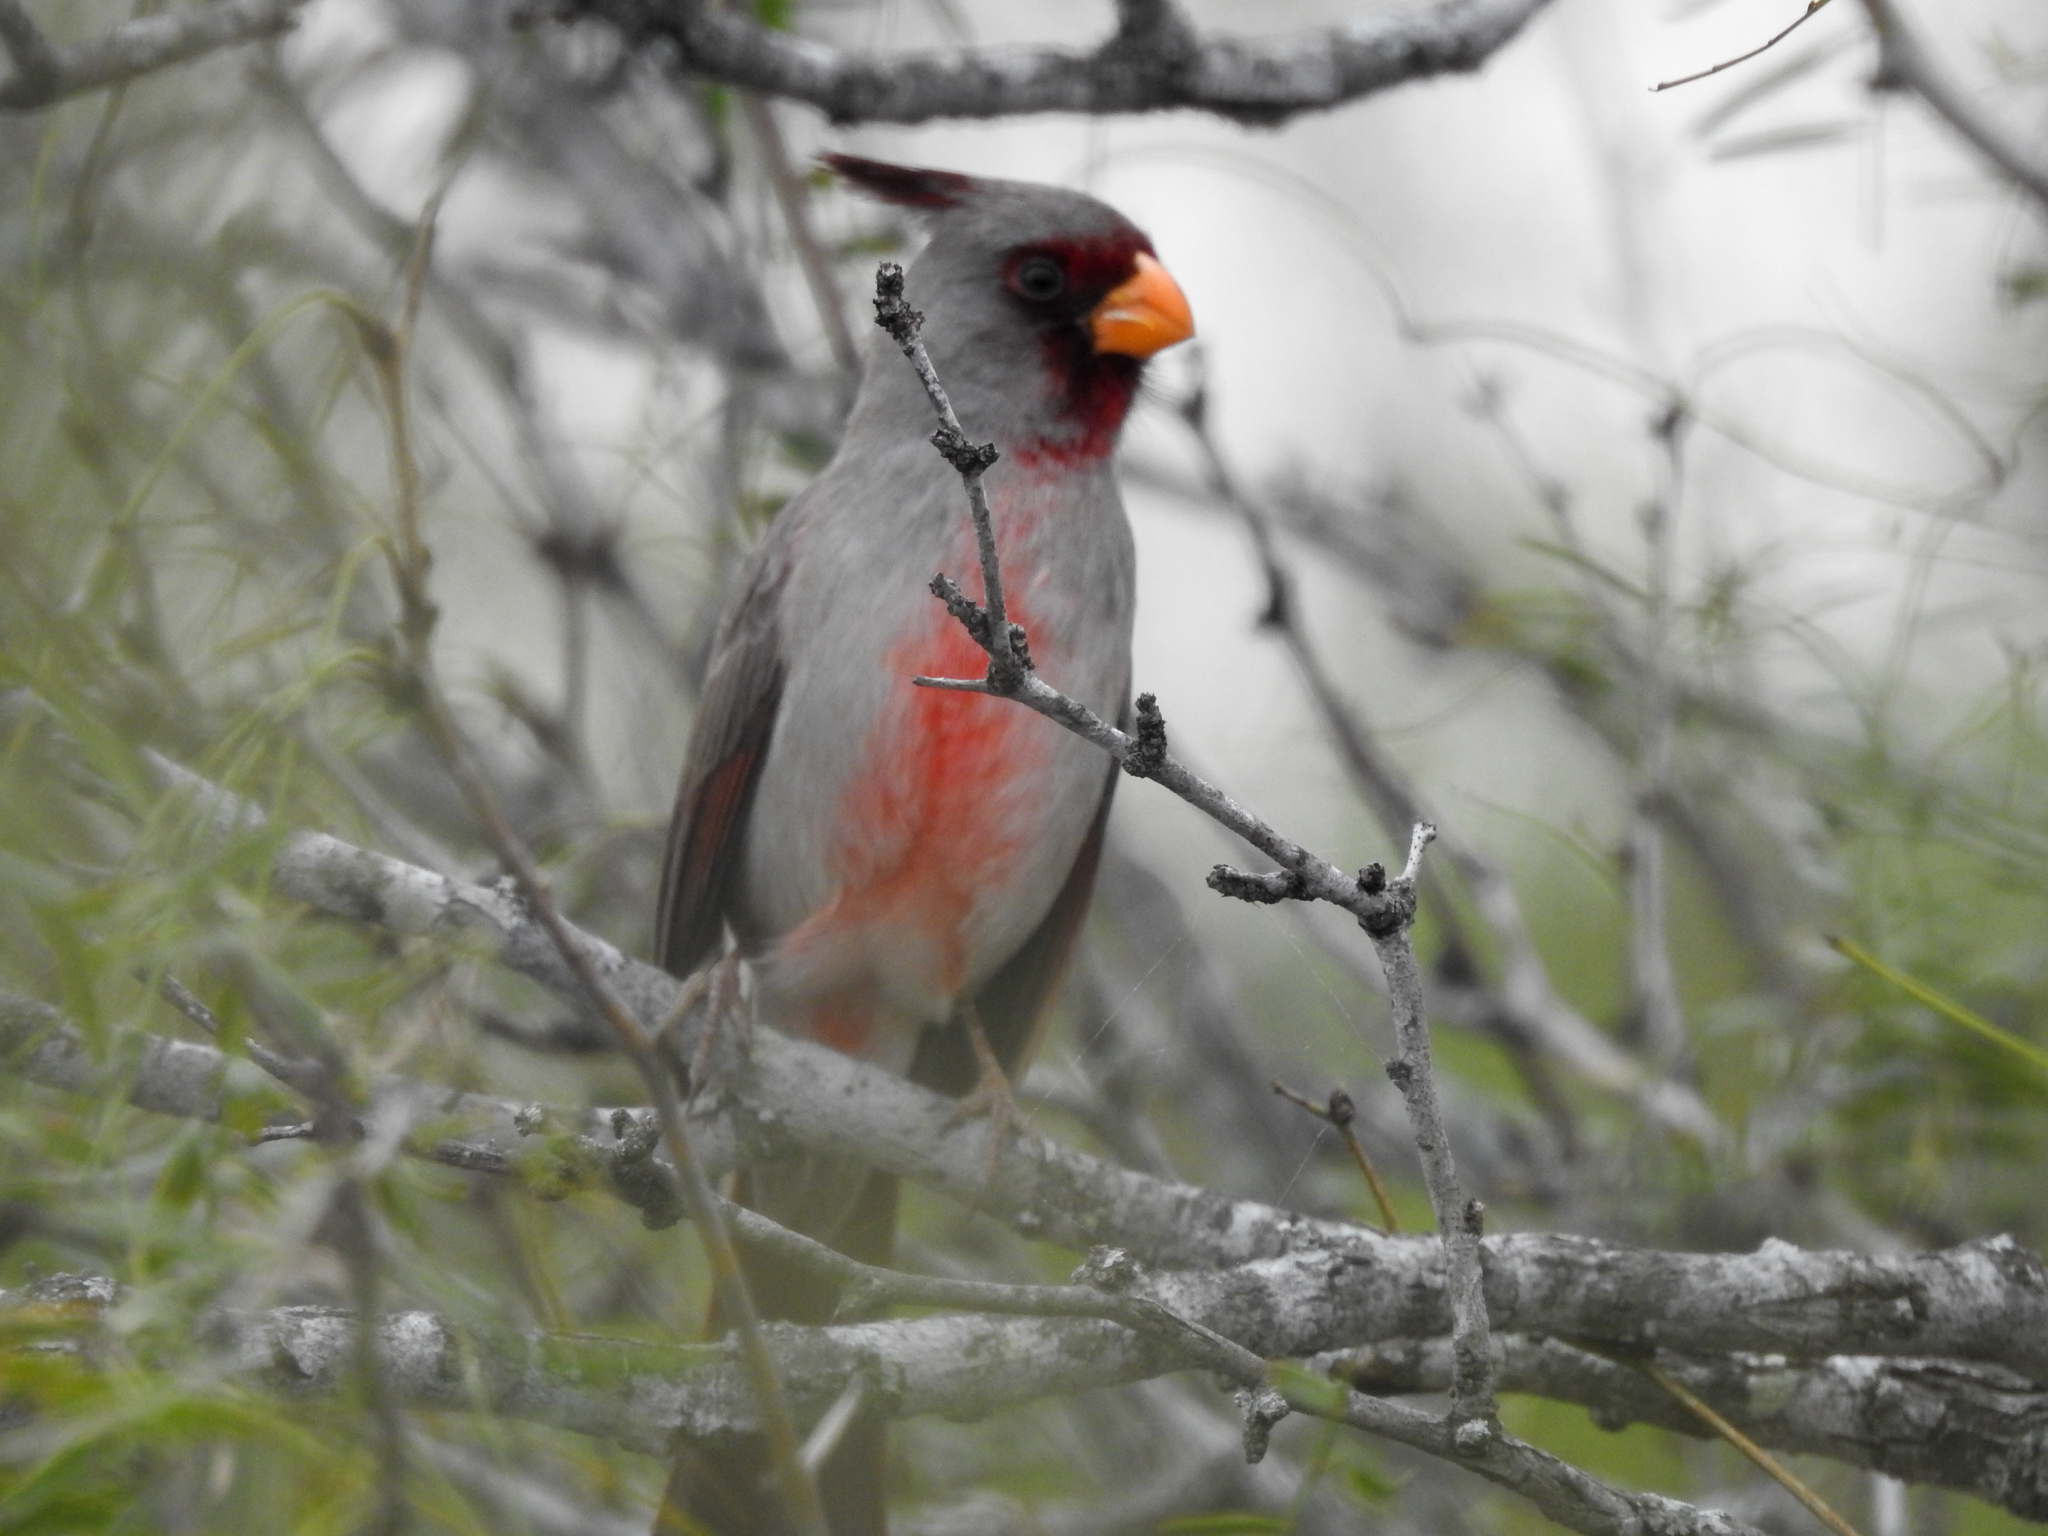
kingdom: Animalia
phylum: Chordata
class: Aves
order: Passeriformes
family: Cardinalidae
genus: Cardinalis
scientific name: Cardinalis sinuatus
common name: Pyrrhuloxia
